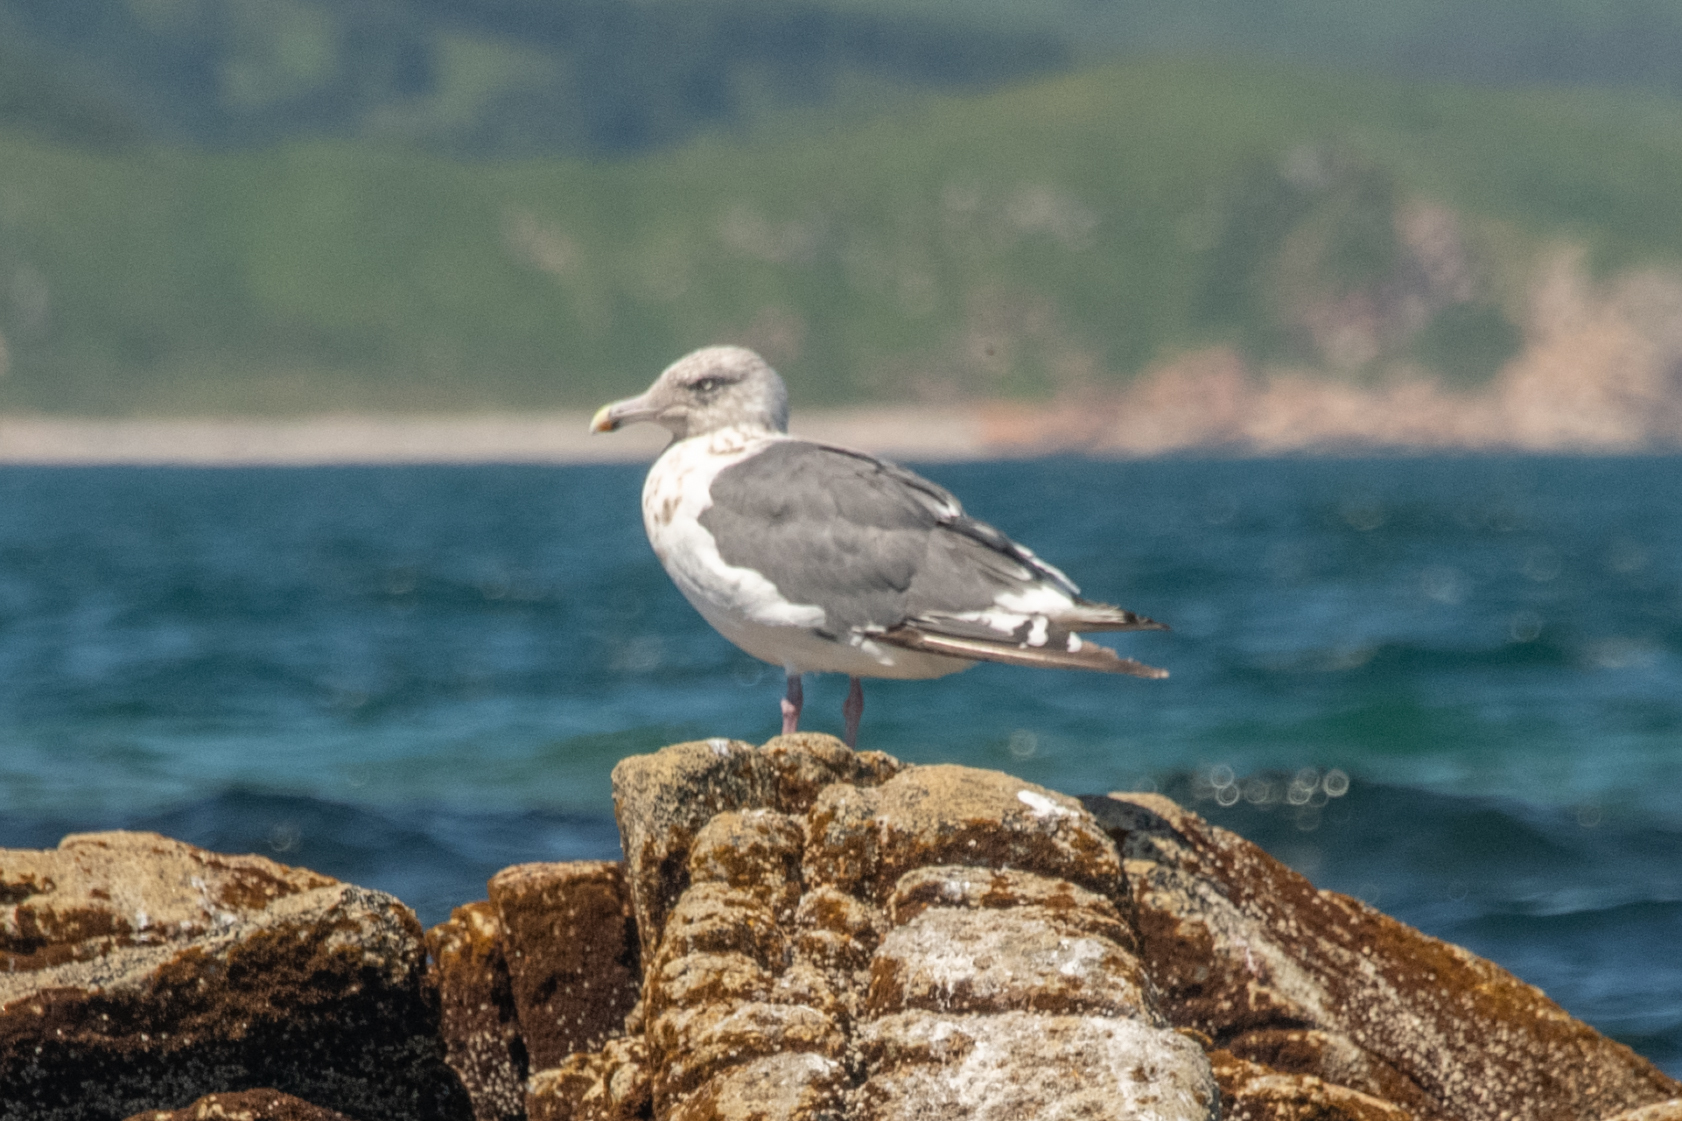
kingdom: Animalia
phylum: Chordata
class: Aves
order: Charadriiformes
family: Laridae
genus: Larus
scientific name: Larus schistisagus
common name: Slaty-backed gull
